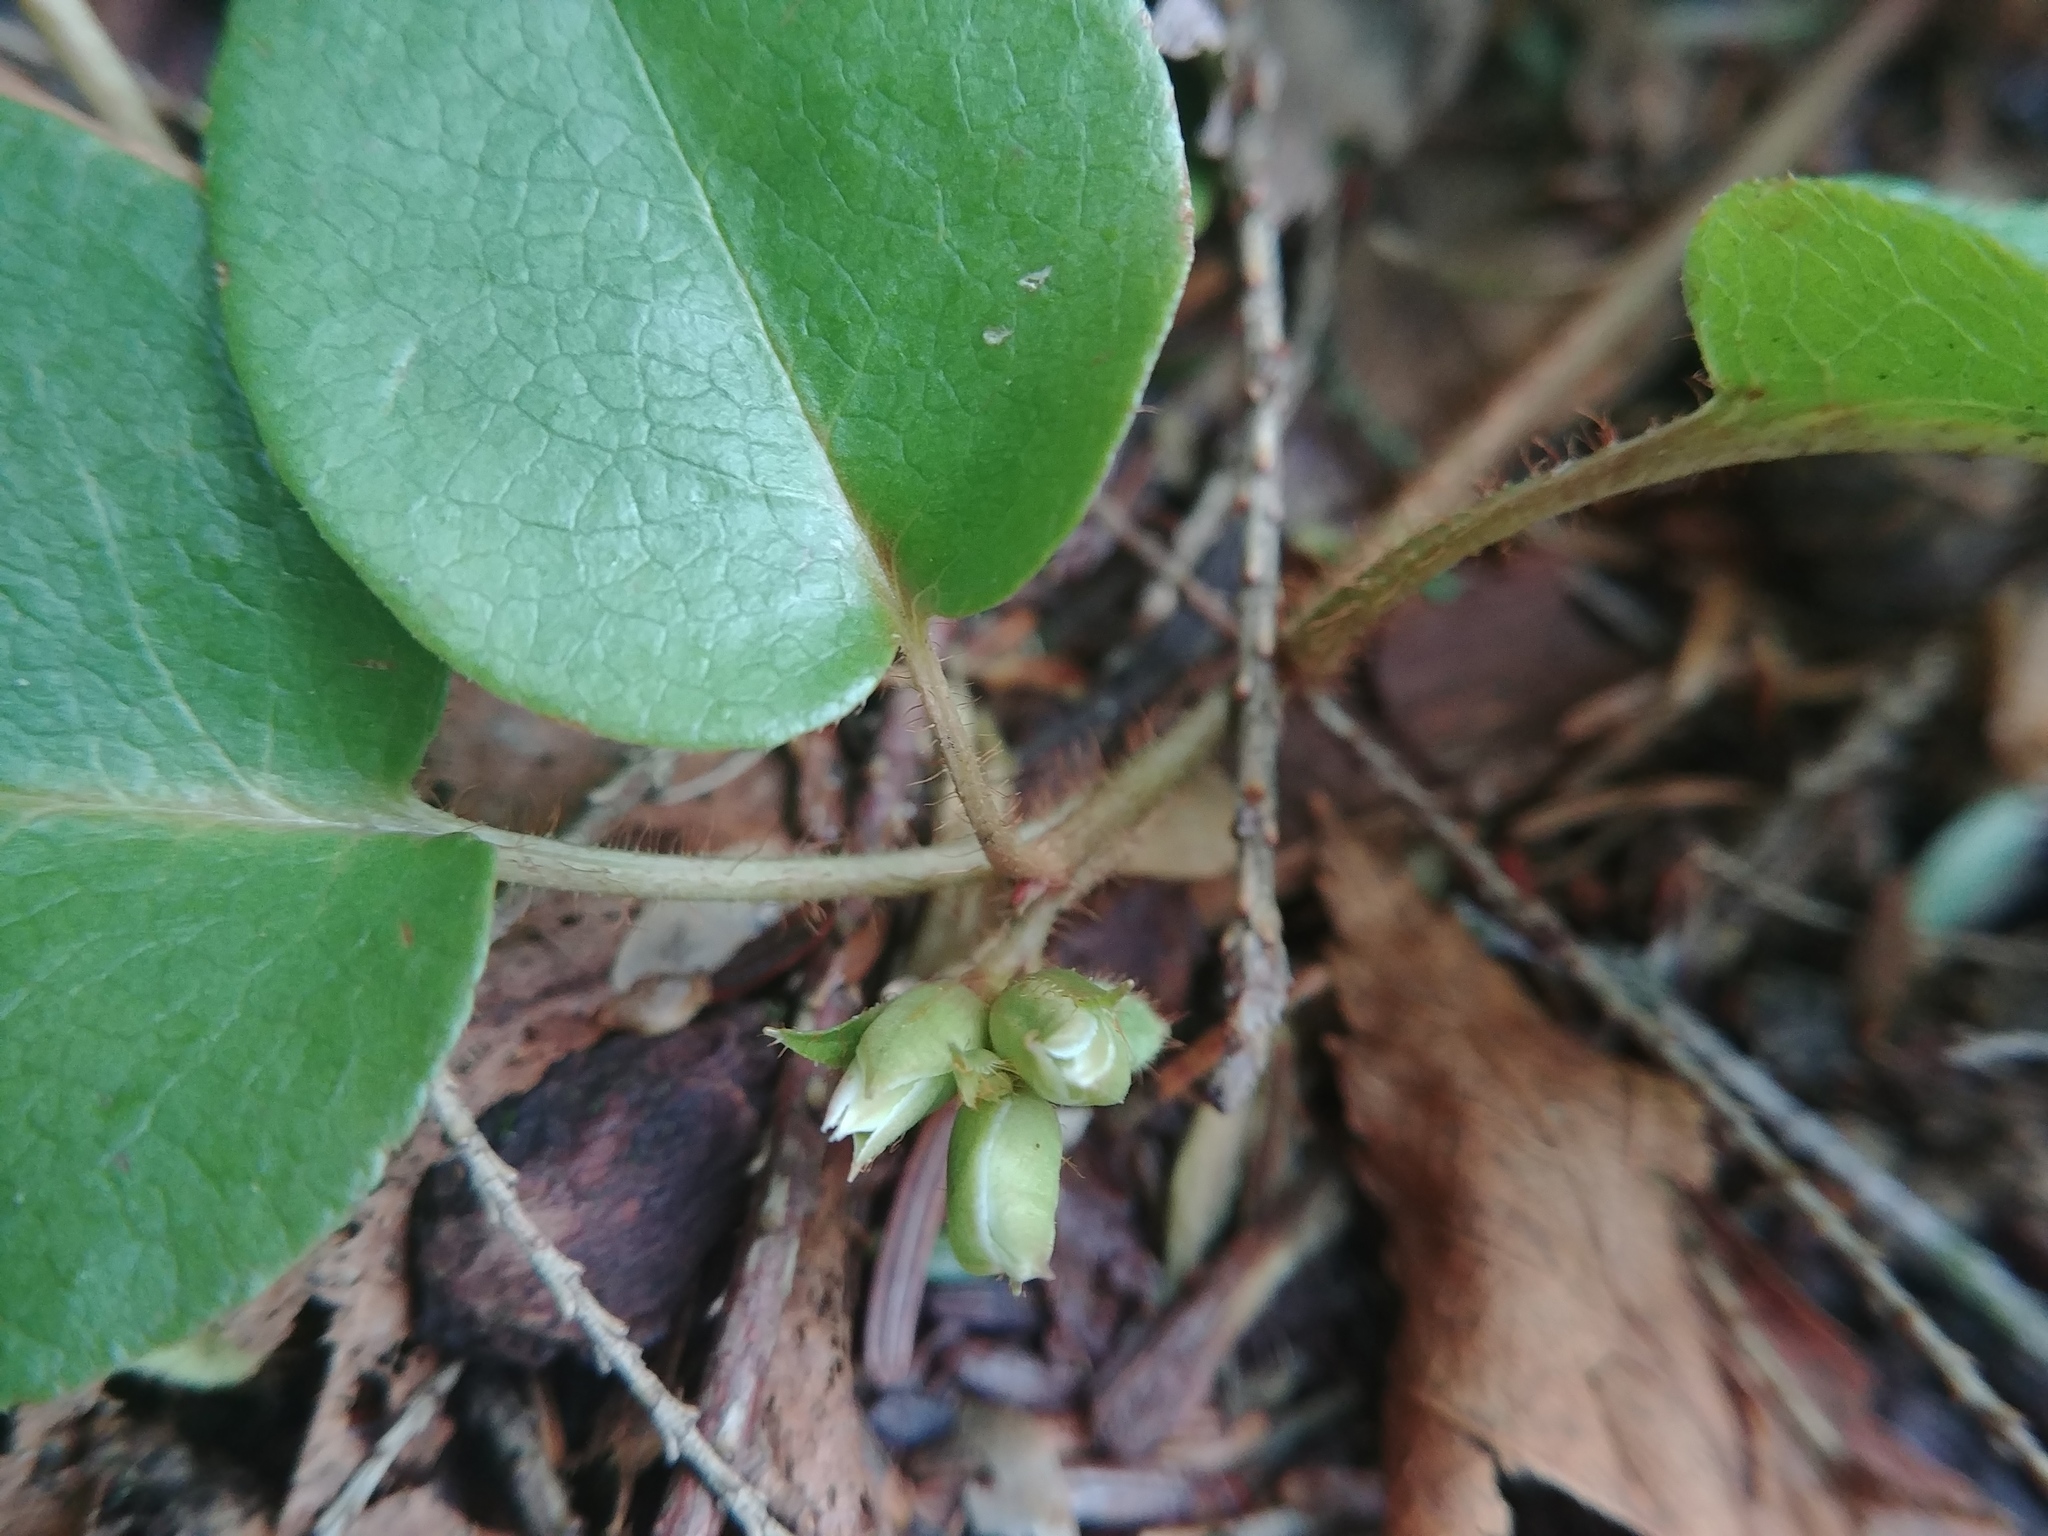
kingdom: Plantae
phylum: Tracheophyta
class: Magnoliopsida
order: Ericales
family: Ericaceae
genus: Epigaea
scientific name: Epigaea repens
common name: Gravelroot
